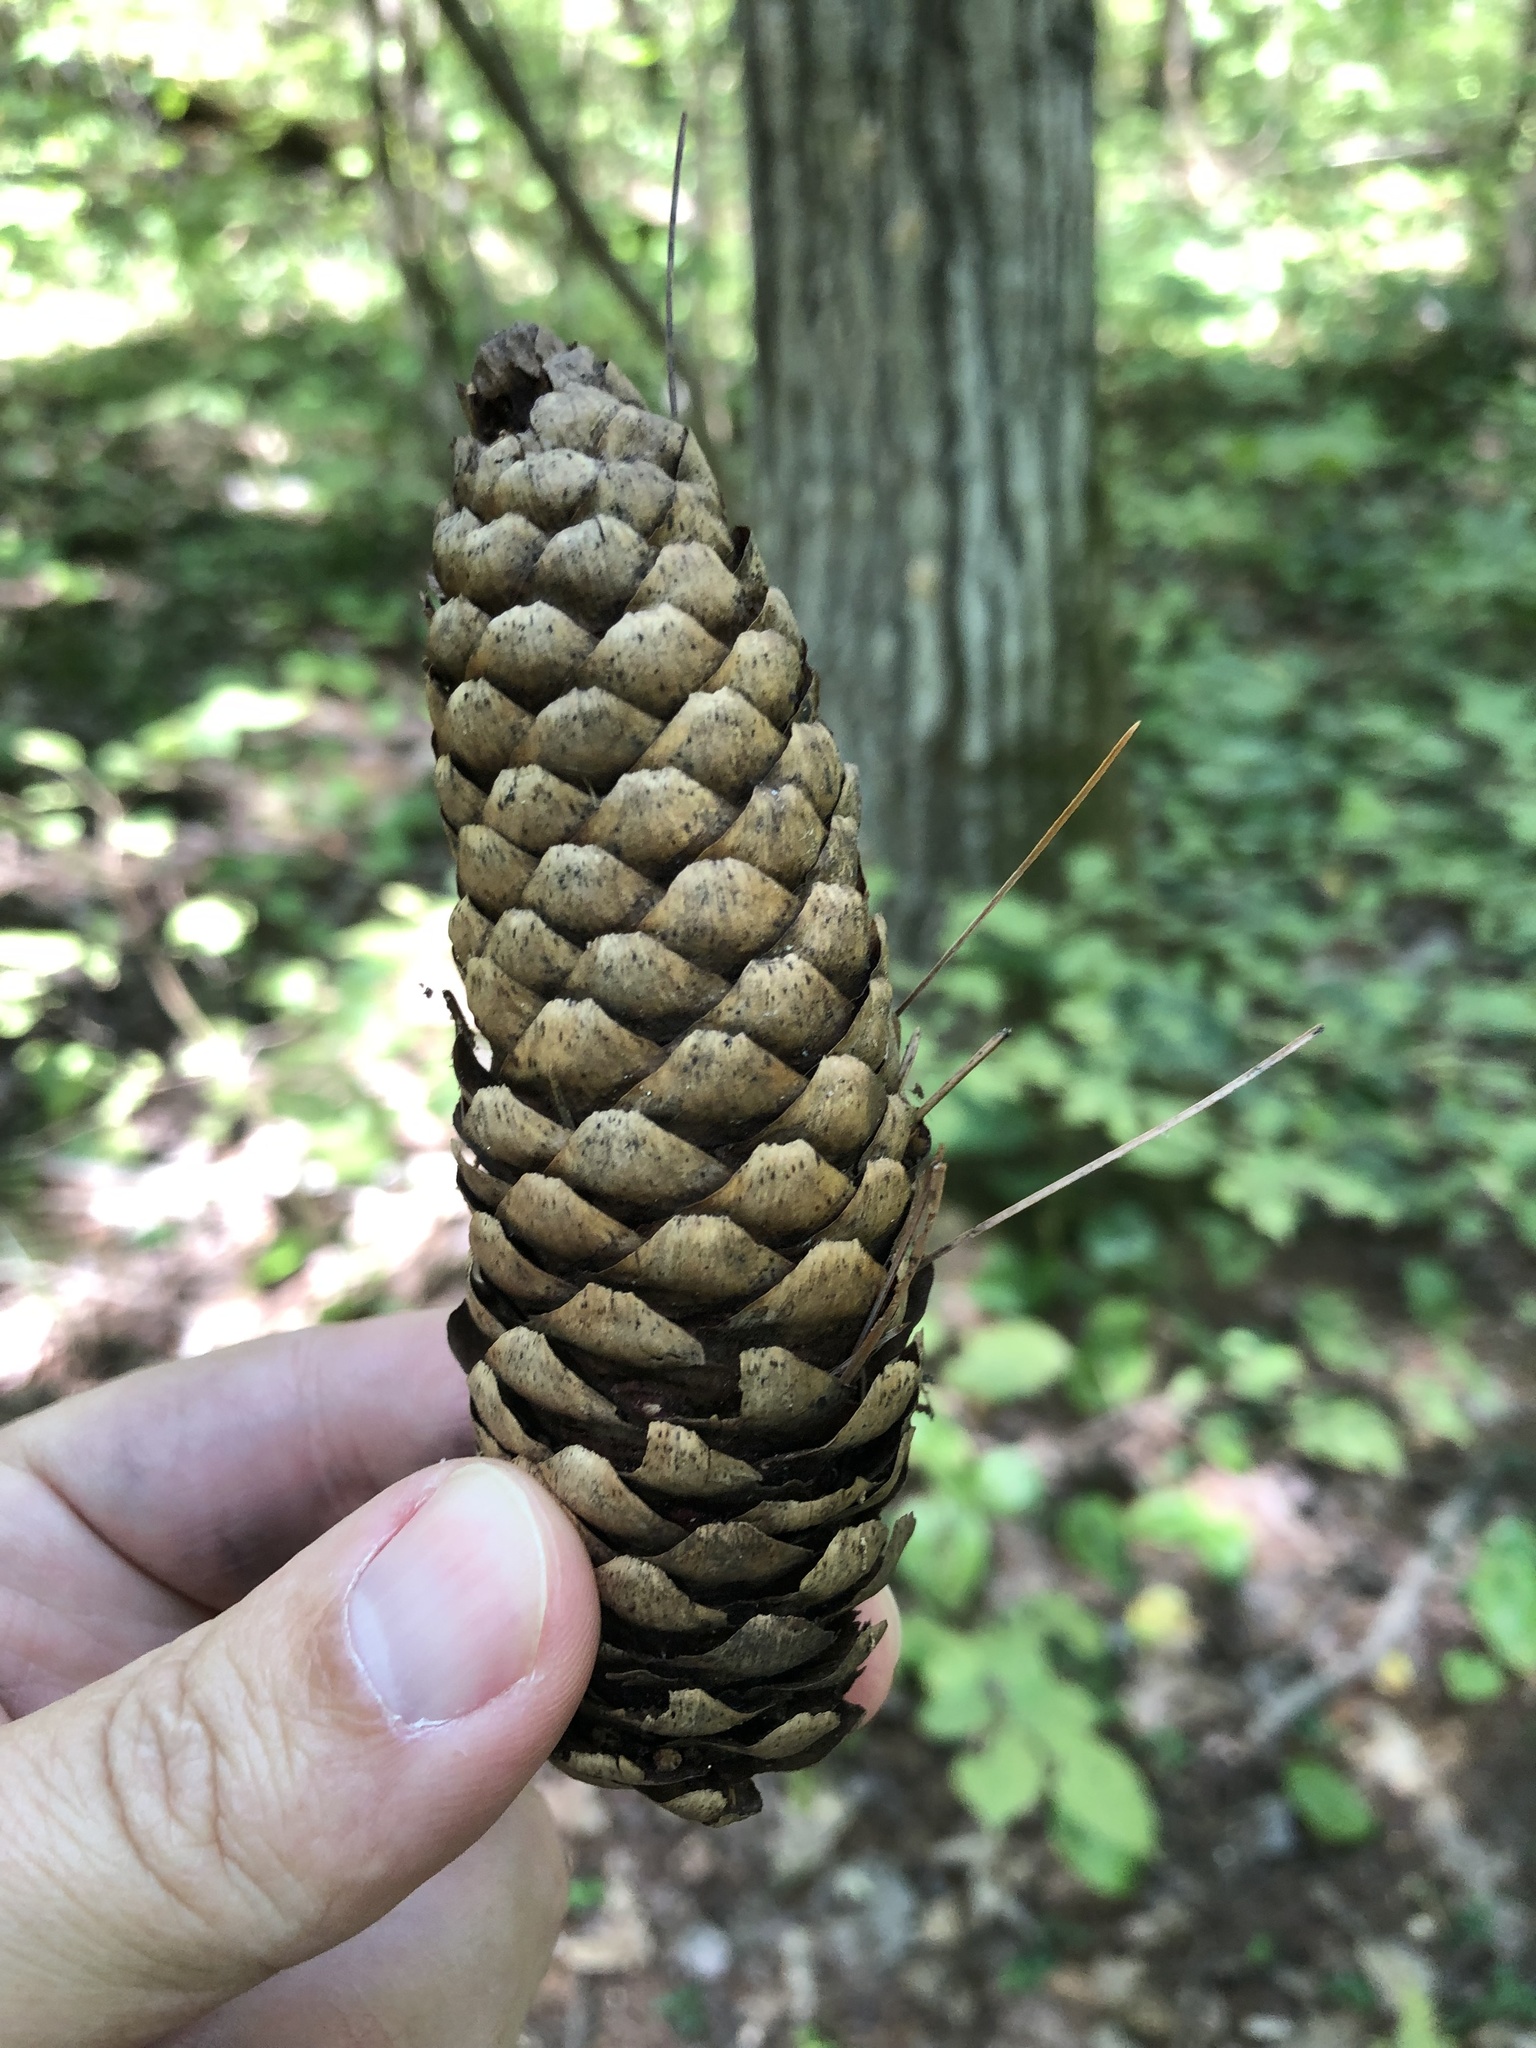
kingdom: Plantae
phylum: Tracheophyta
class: Pinopsida
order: Pinales
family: Pinaceae
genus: Picea
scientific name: Picea abies
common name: Norway spruce
